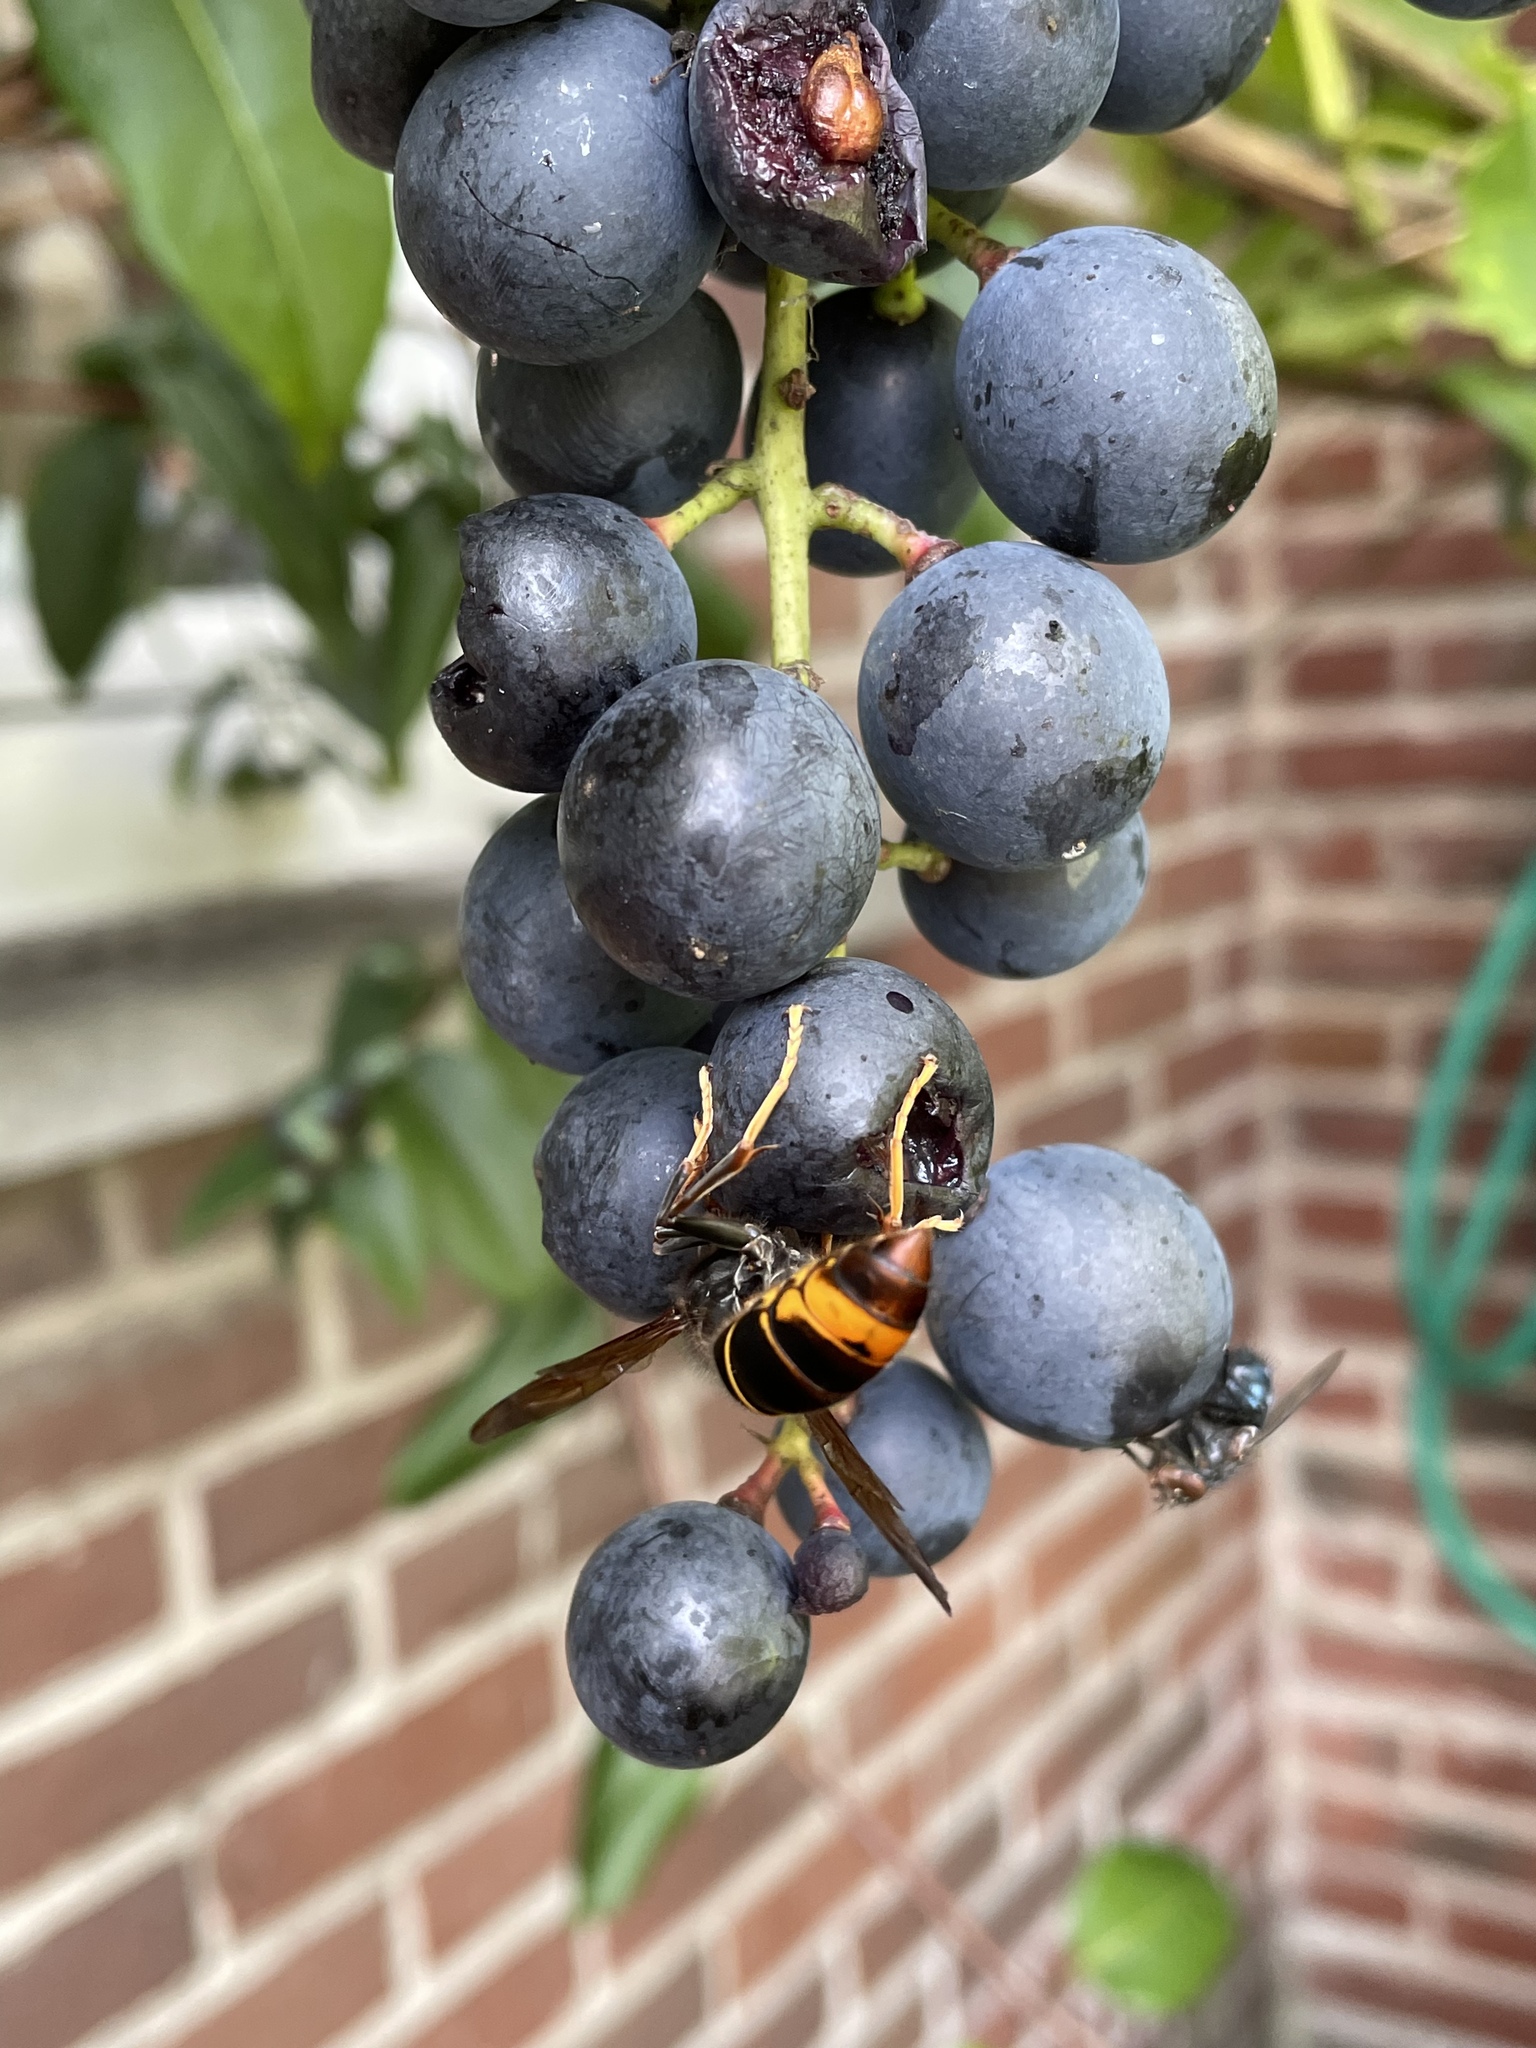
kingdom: Animalia
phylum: Arthropoda
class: Insecta
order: Hymenoptera
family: Vespidae
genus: Vespa
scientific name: Vespa velutina
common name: Asian hornet
